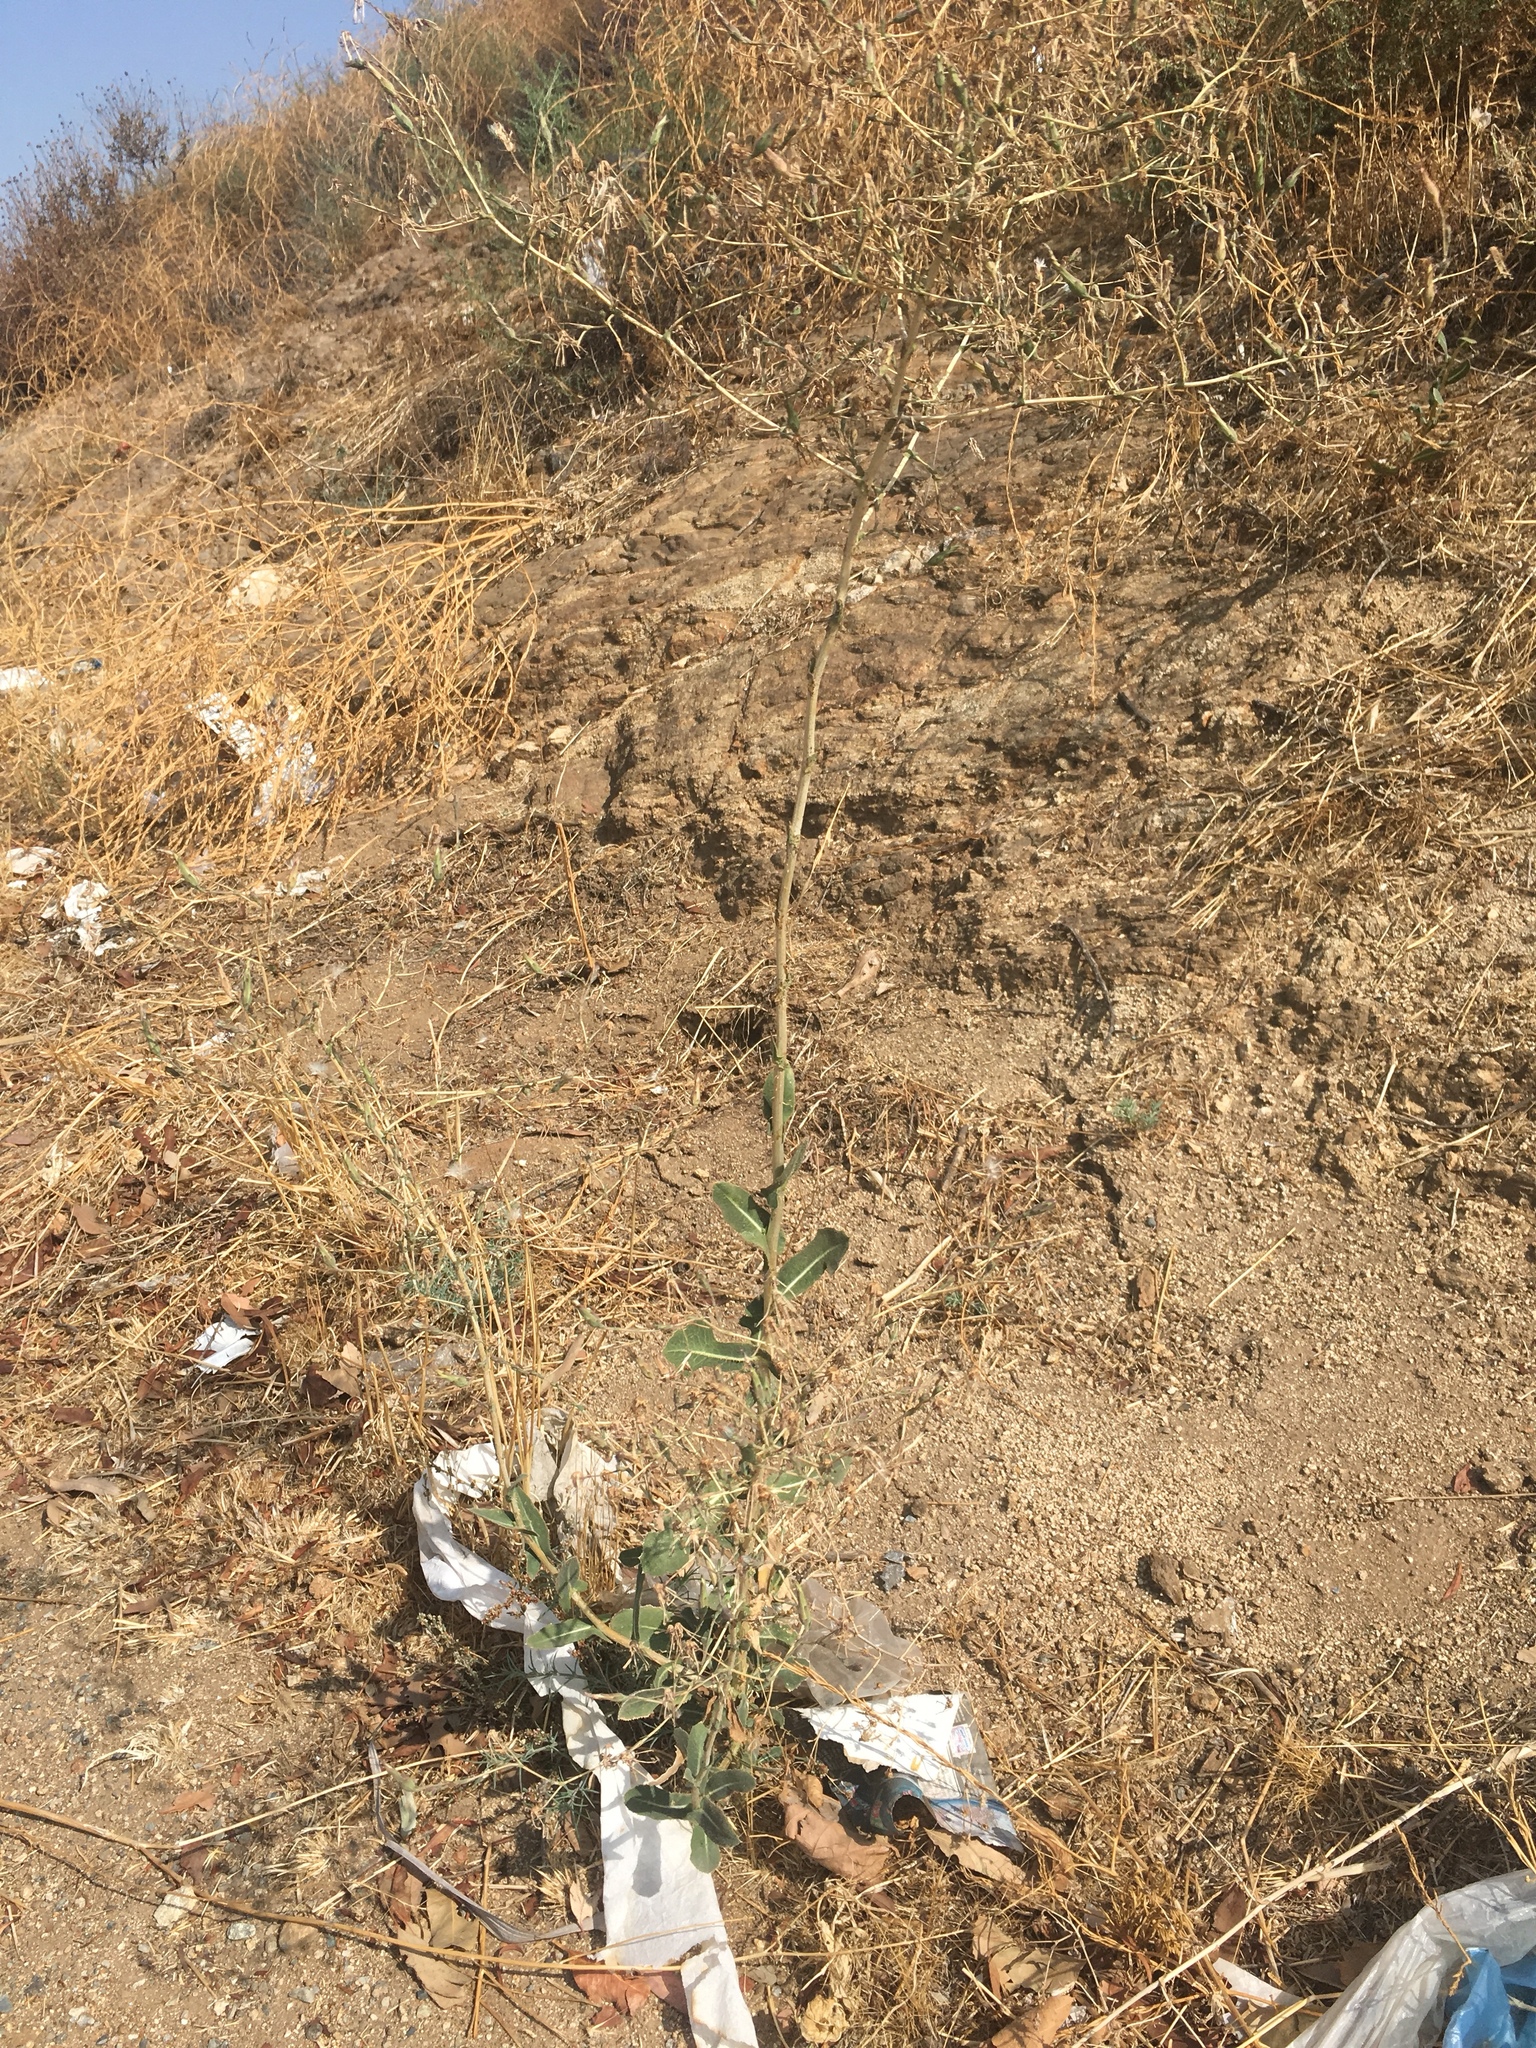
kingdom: Plantae
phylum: Tracheophyta
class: Magnoliopsida
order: Asterales
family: Asteraceae
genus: Lactuca
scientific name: Lactuca serriola
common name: Prickly lettuce
